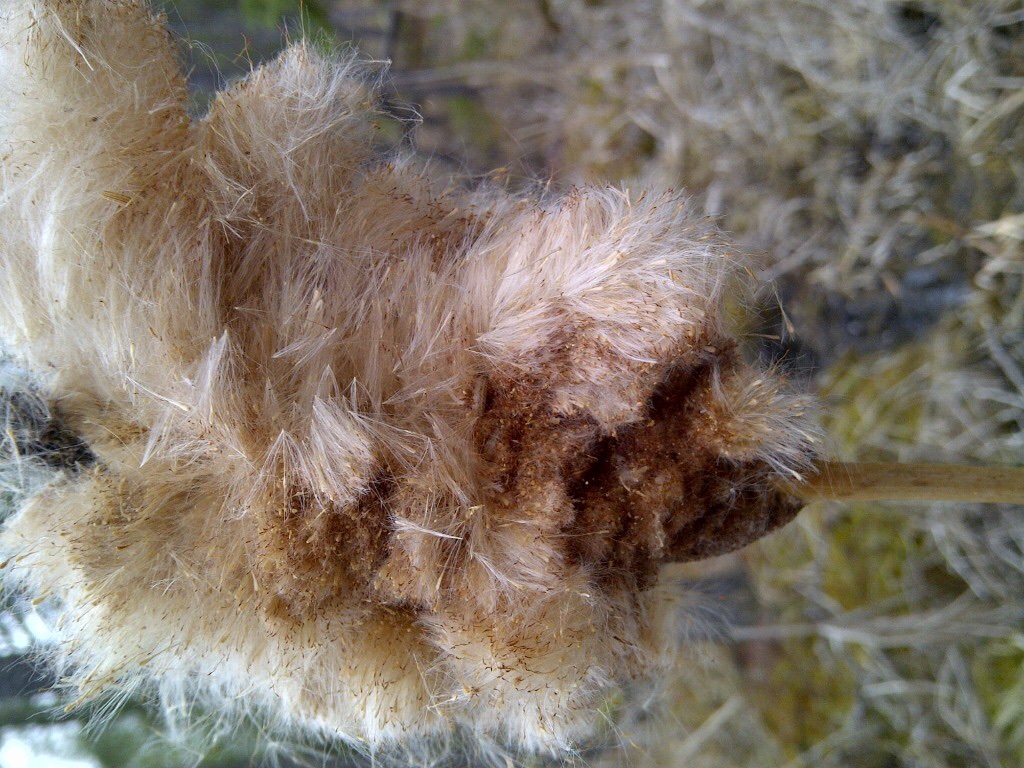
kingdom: Animalia
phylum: Arthropoda
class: Insecta
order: Lepidoptera
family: Cosmopterigidae
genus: Limnaecia
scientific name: Limnaecia phragmitella
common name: Bulrush cosmet
